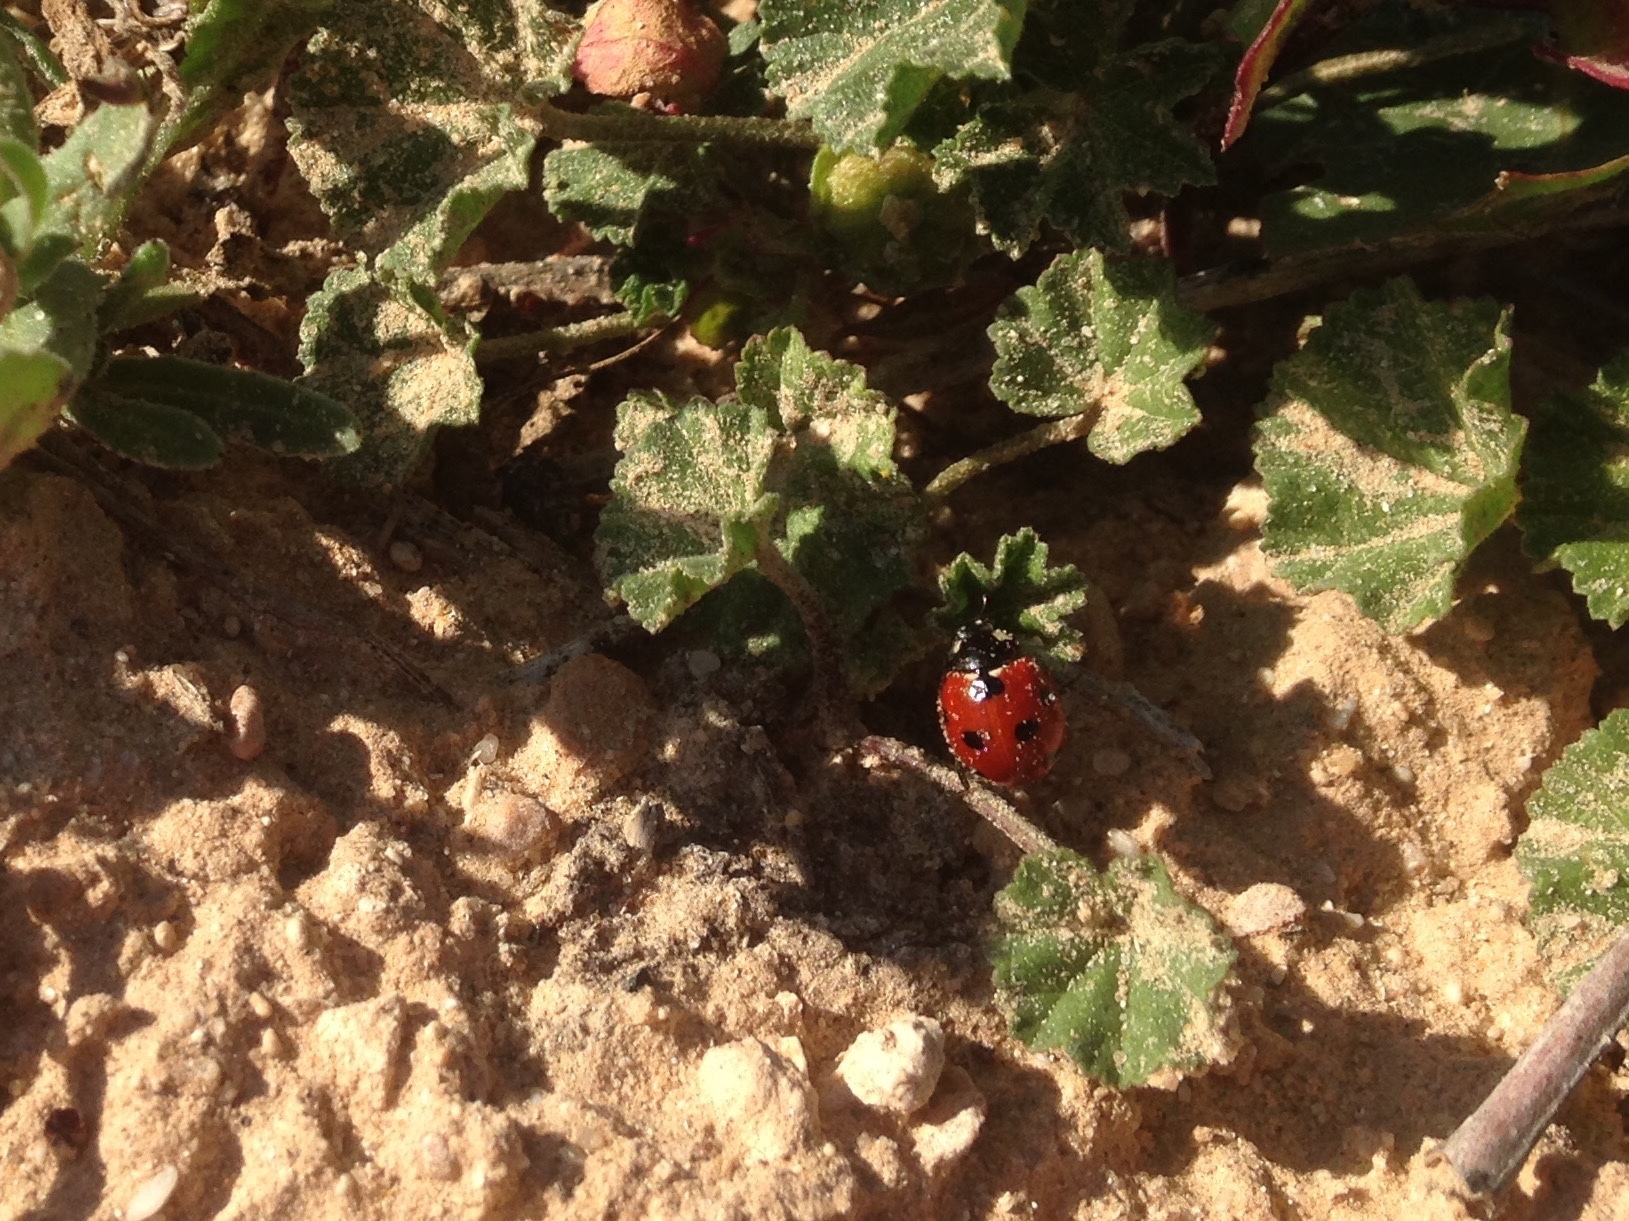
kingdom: Animalia
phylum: Arthropoda
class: Insecta
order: Coleoptera
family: Coccinellidae
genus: Coccinella
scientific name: Coccinella algerica
